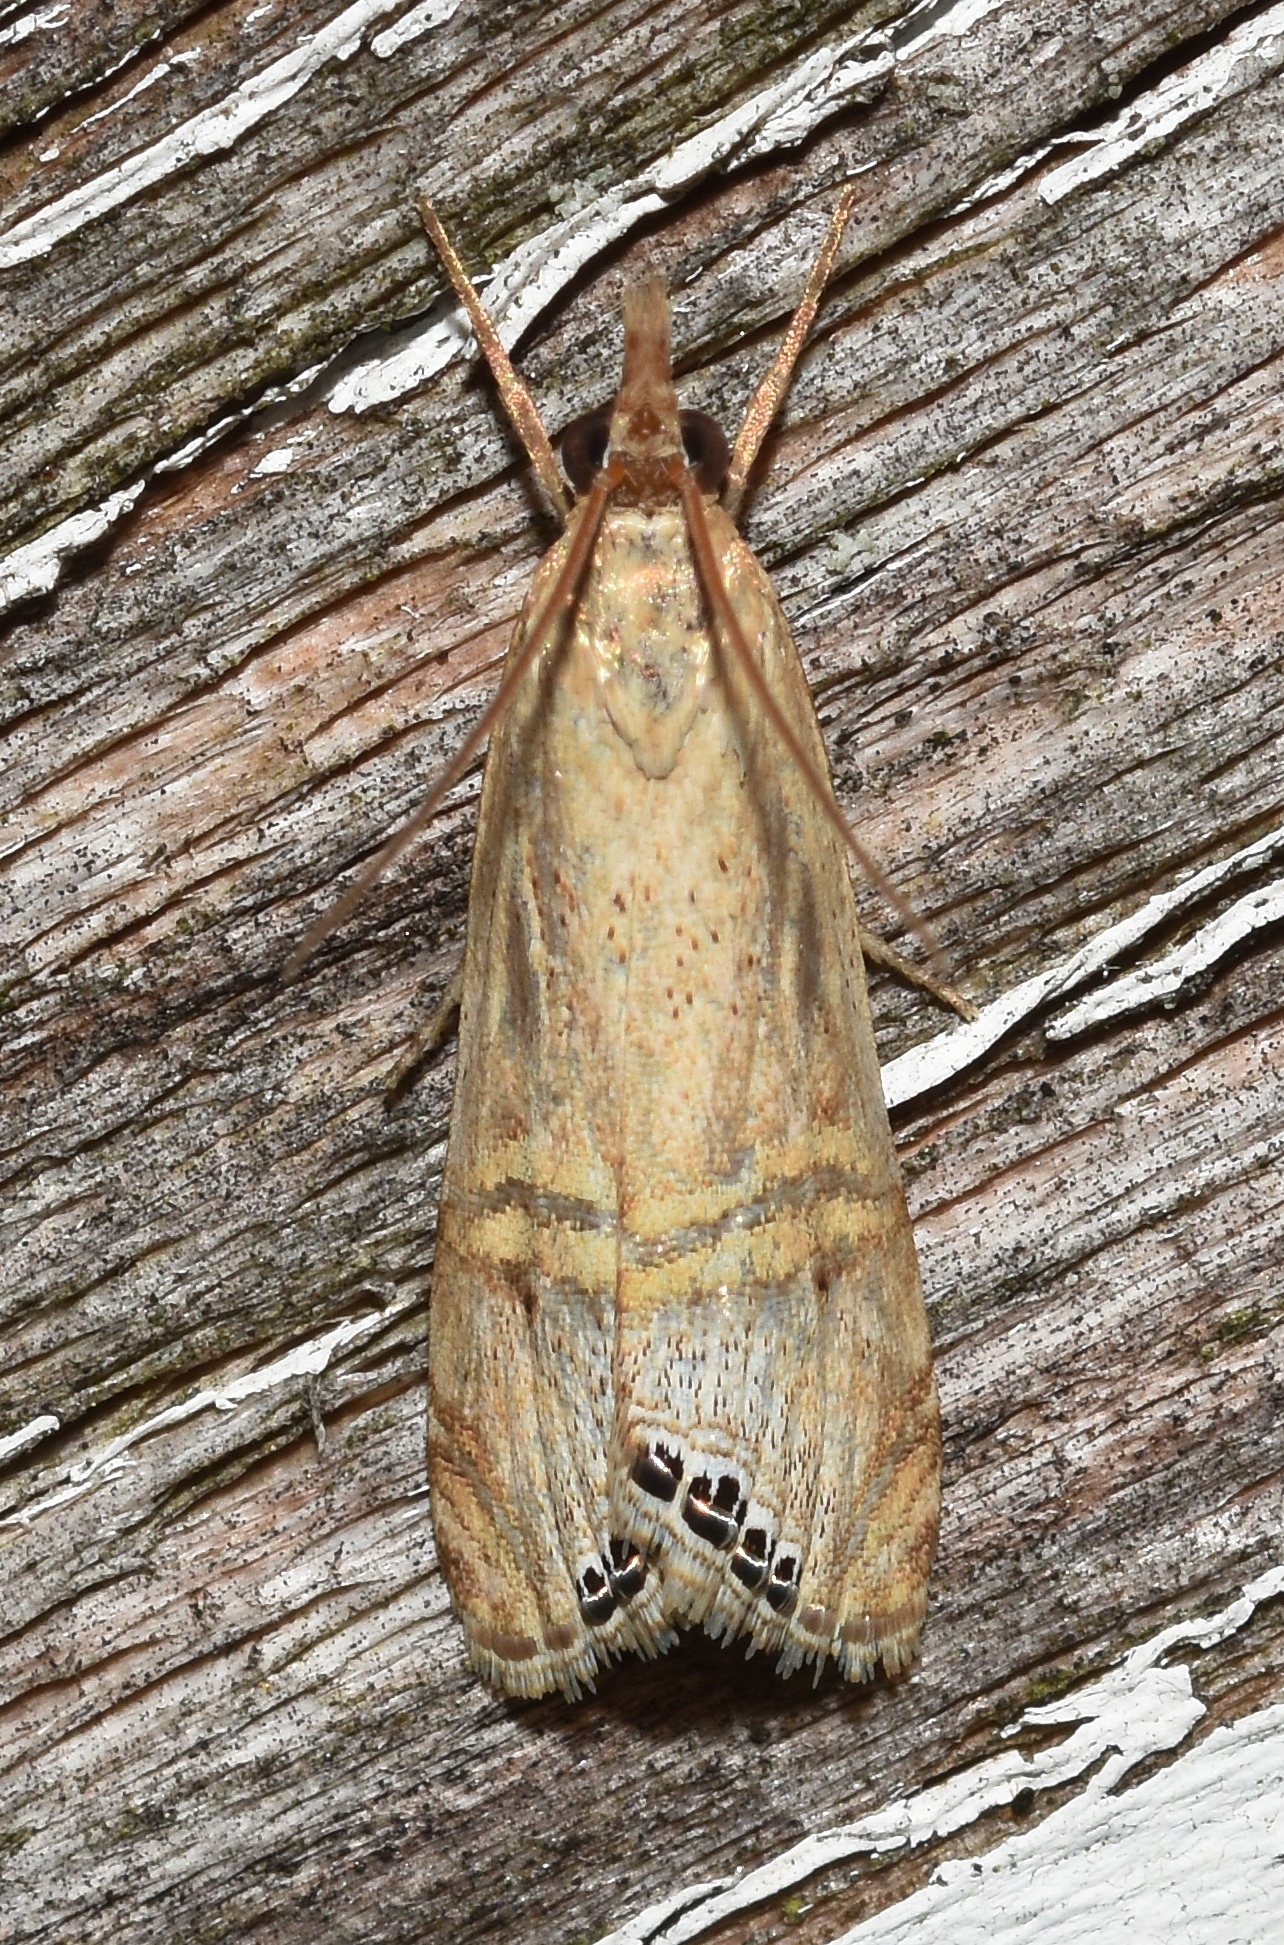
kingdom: Animalia
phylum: Arthropoda
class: Insecta
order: Lepidoptera
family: Crambidae
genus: Euchromius
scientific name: Euchromius ocellea
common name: Necklace veneer moth
